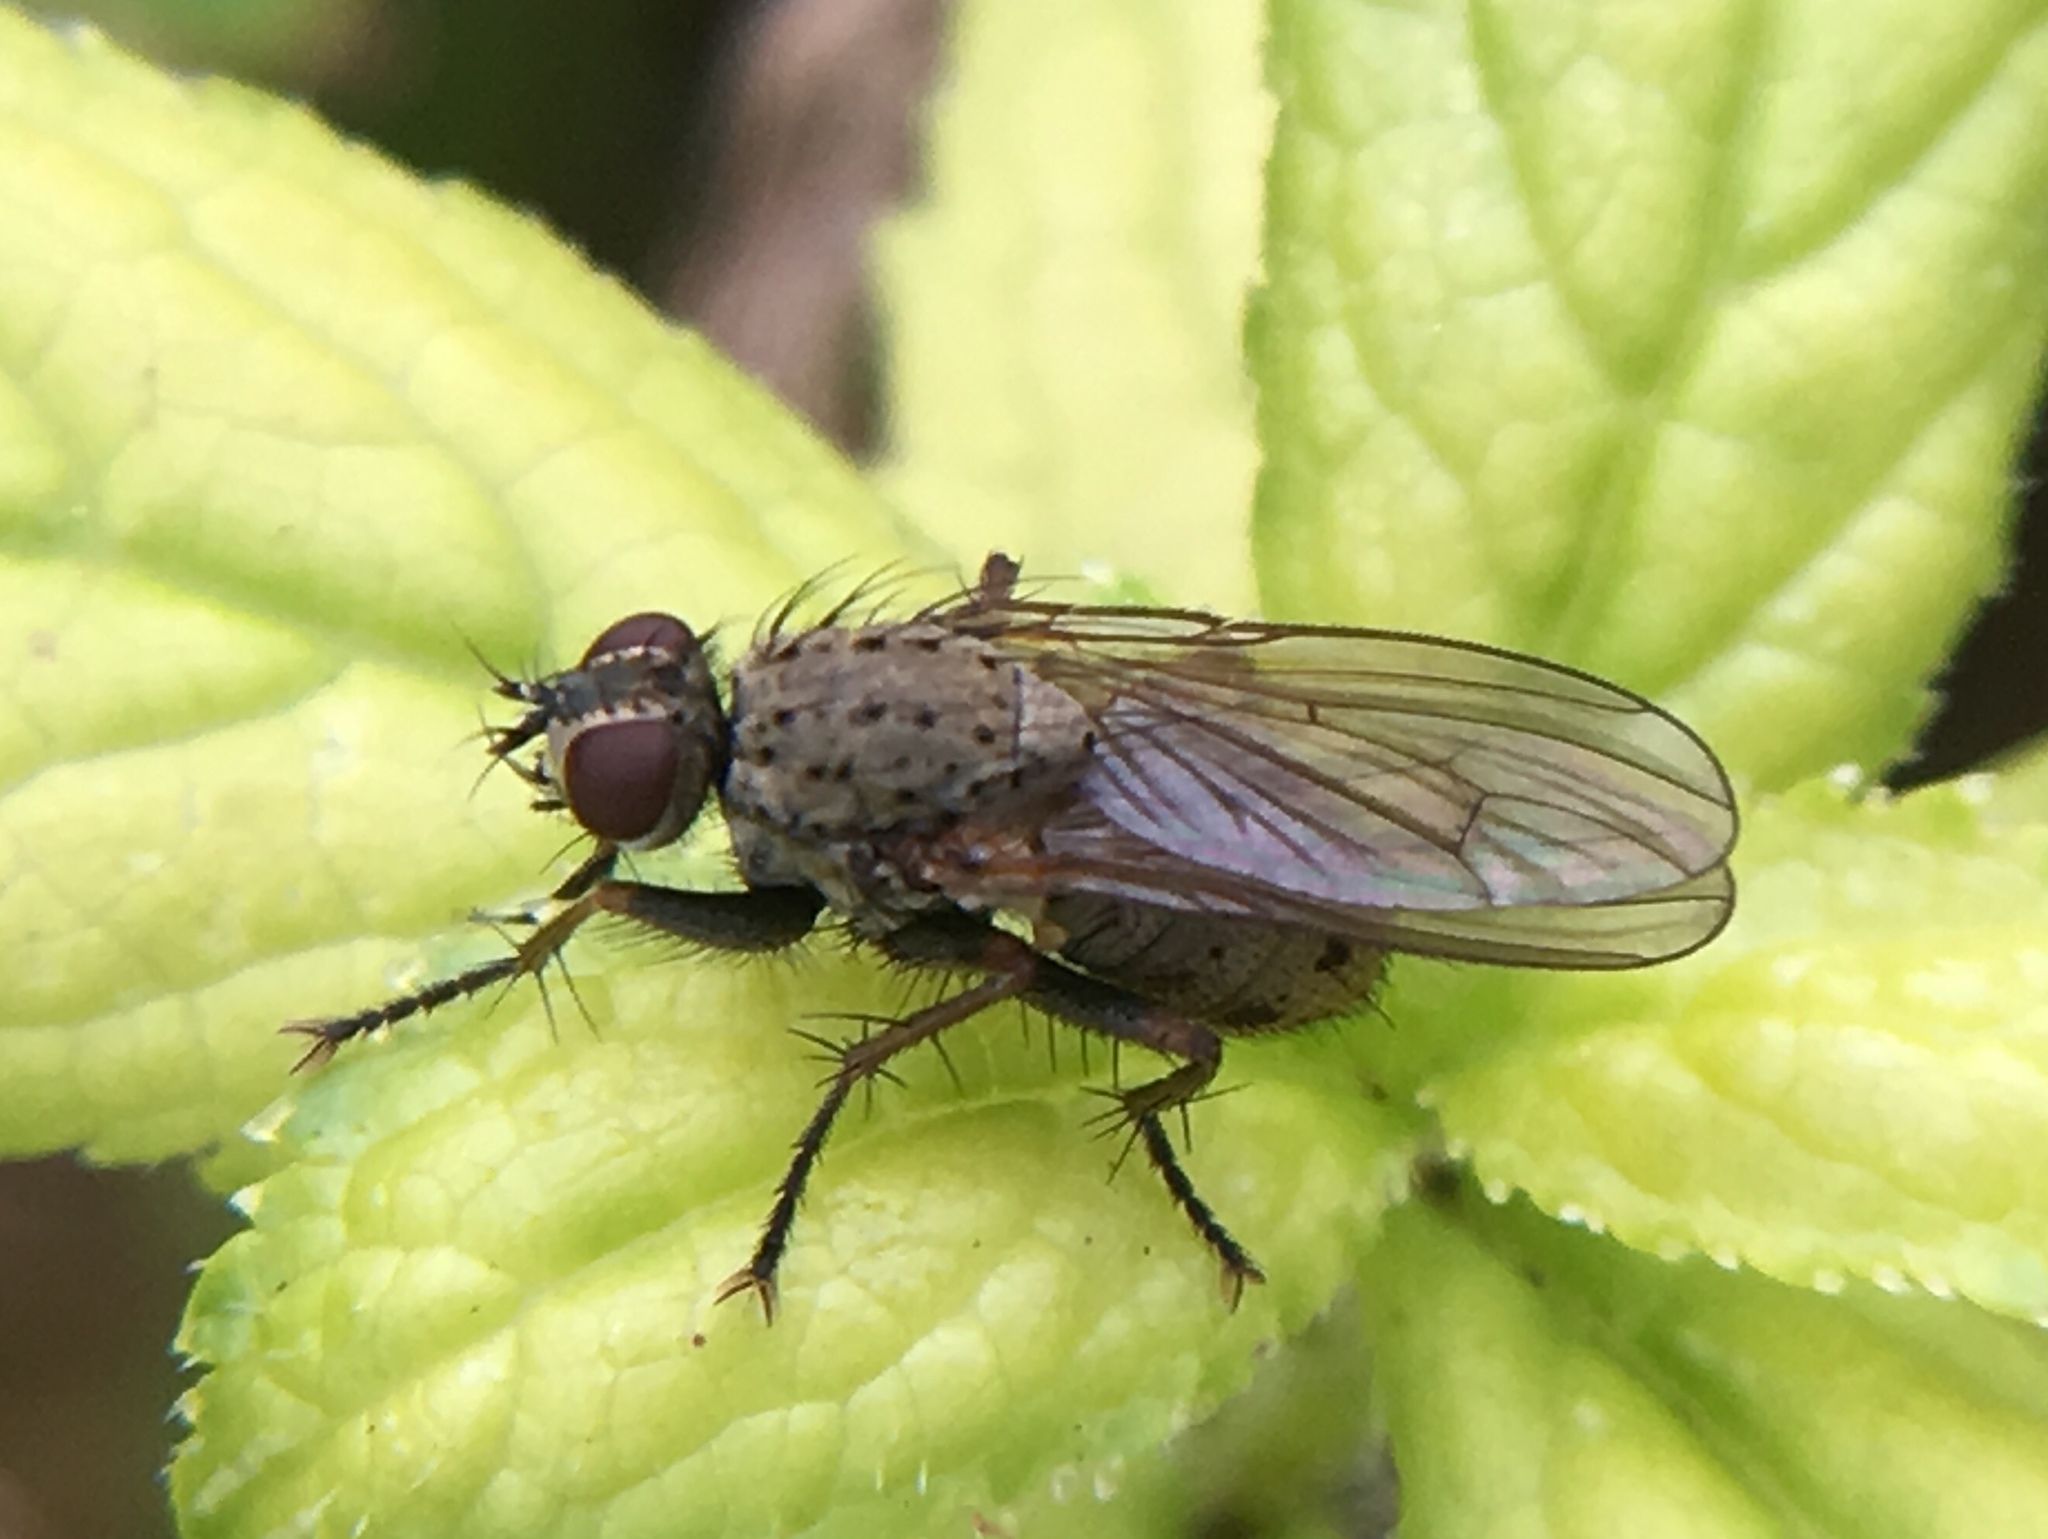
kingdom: Animalia
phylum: Arthropoda
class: Insecta
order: Diptera
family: Muscidae
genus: Coenosia
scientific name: Coenosia tigrina
